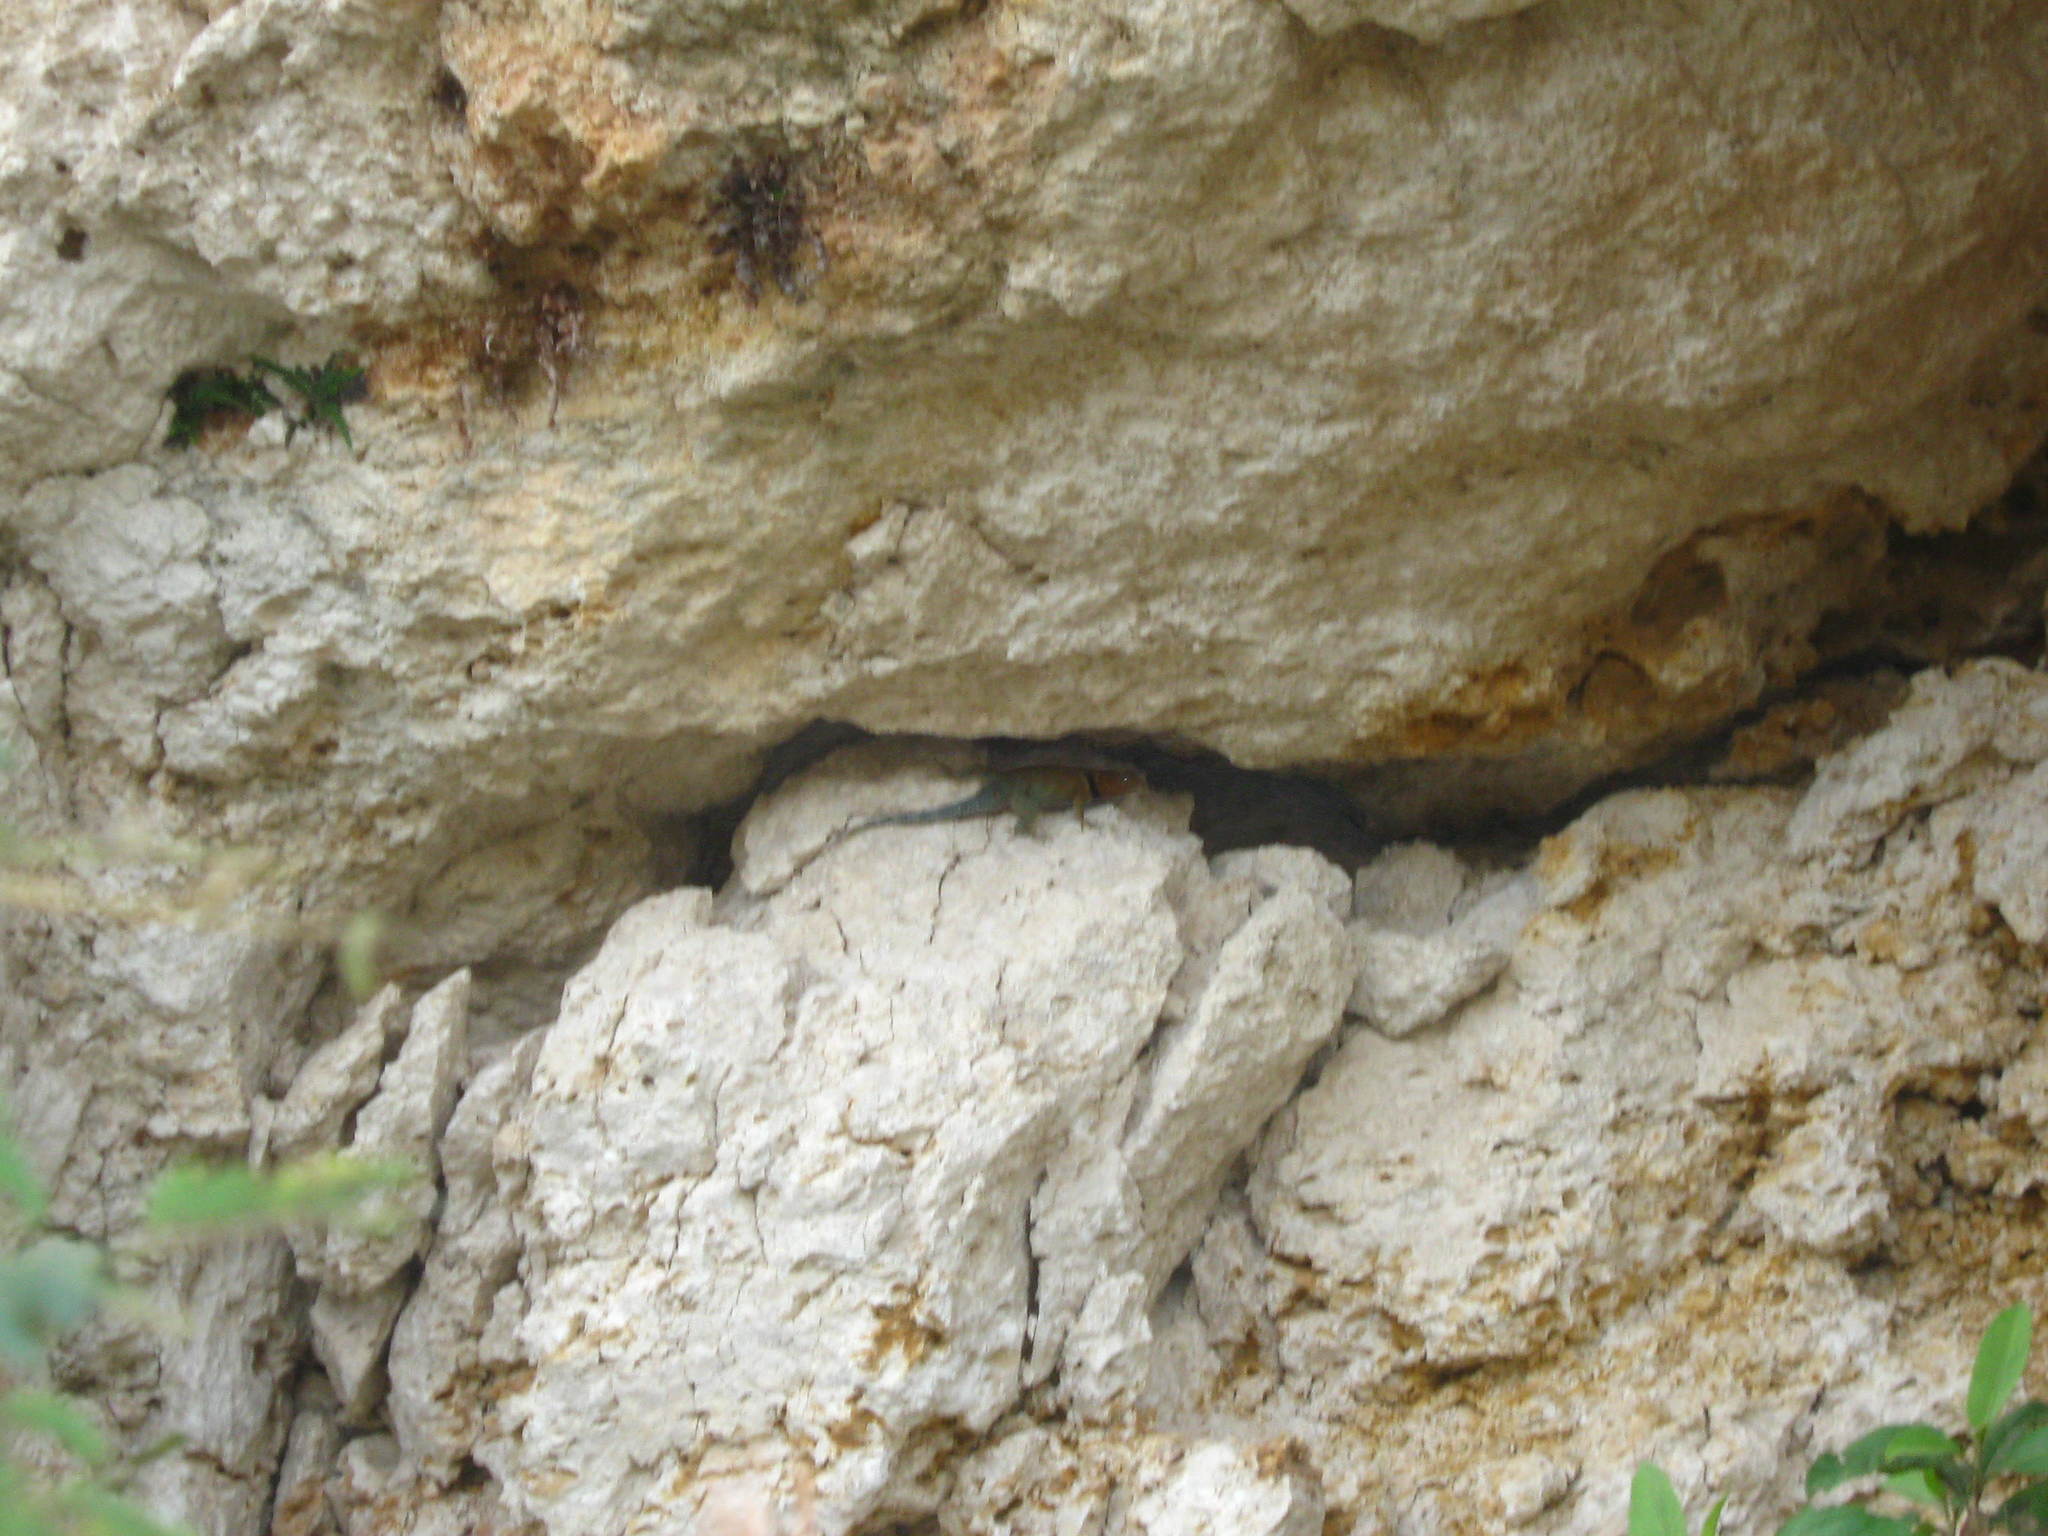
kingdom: Animalia
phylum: Chordata
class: Squamata
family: Phrynosomatidae
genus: Sceloporus
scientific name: Sceloporus serrifer
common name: Blue spiny lizard
